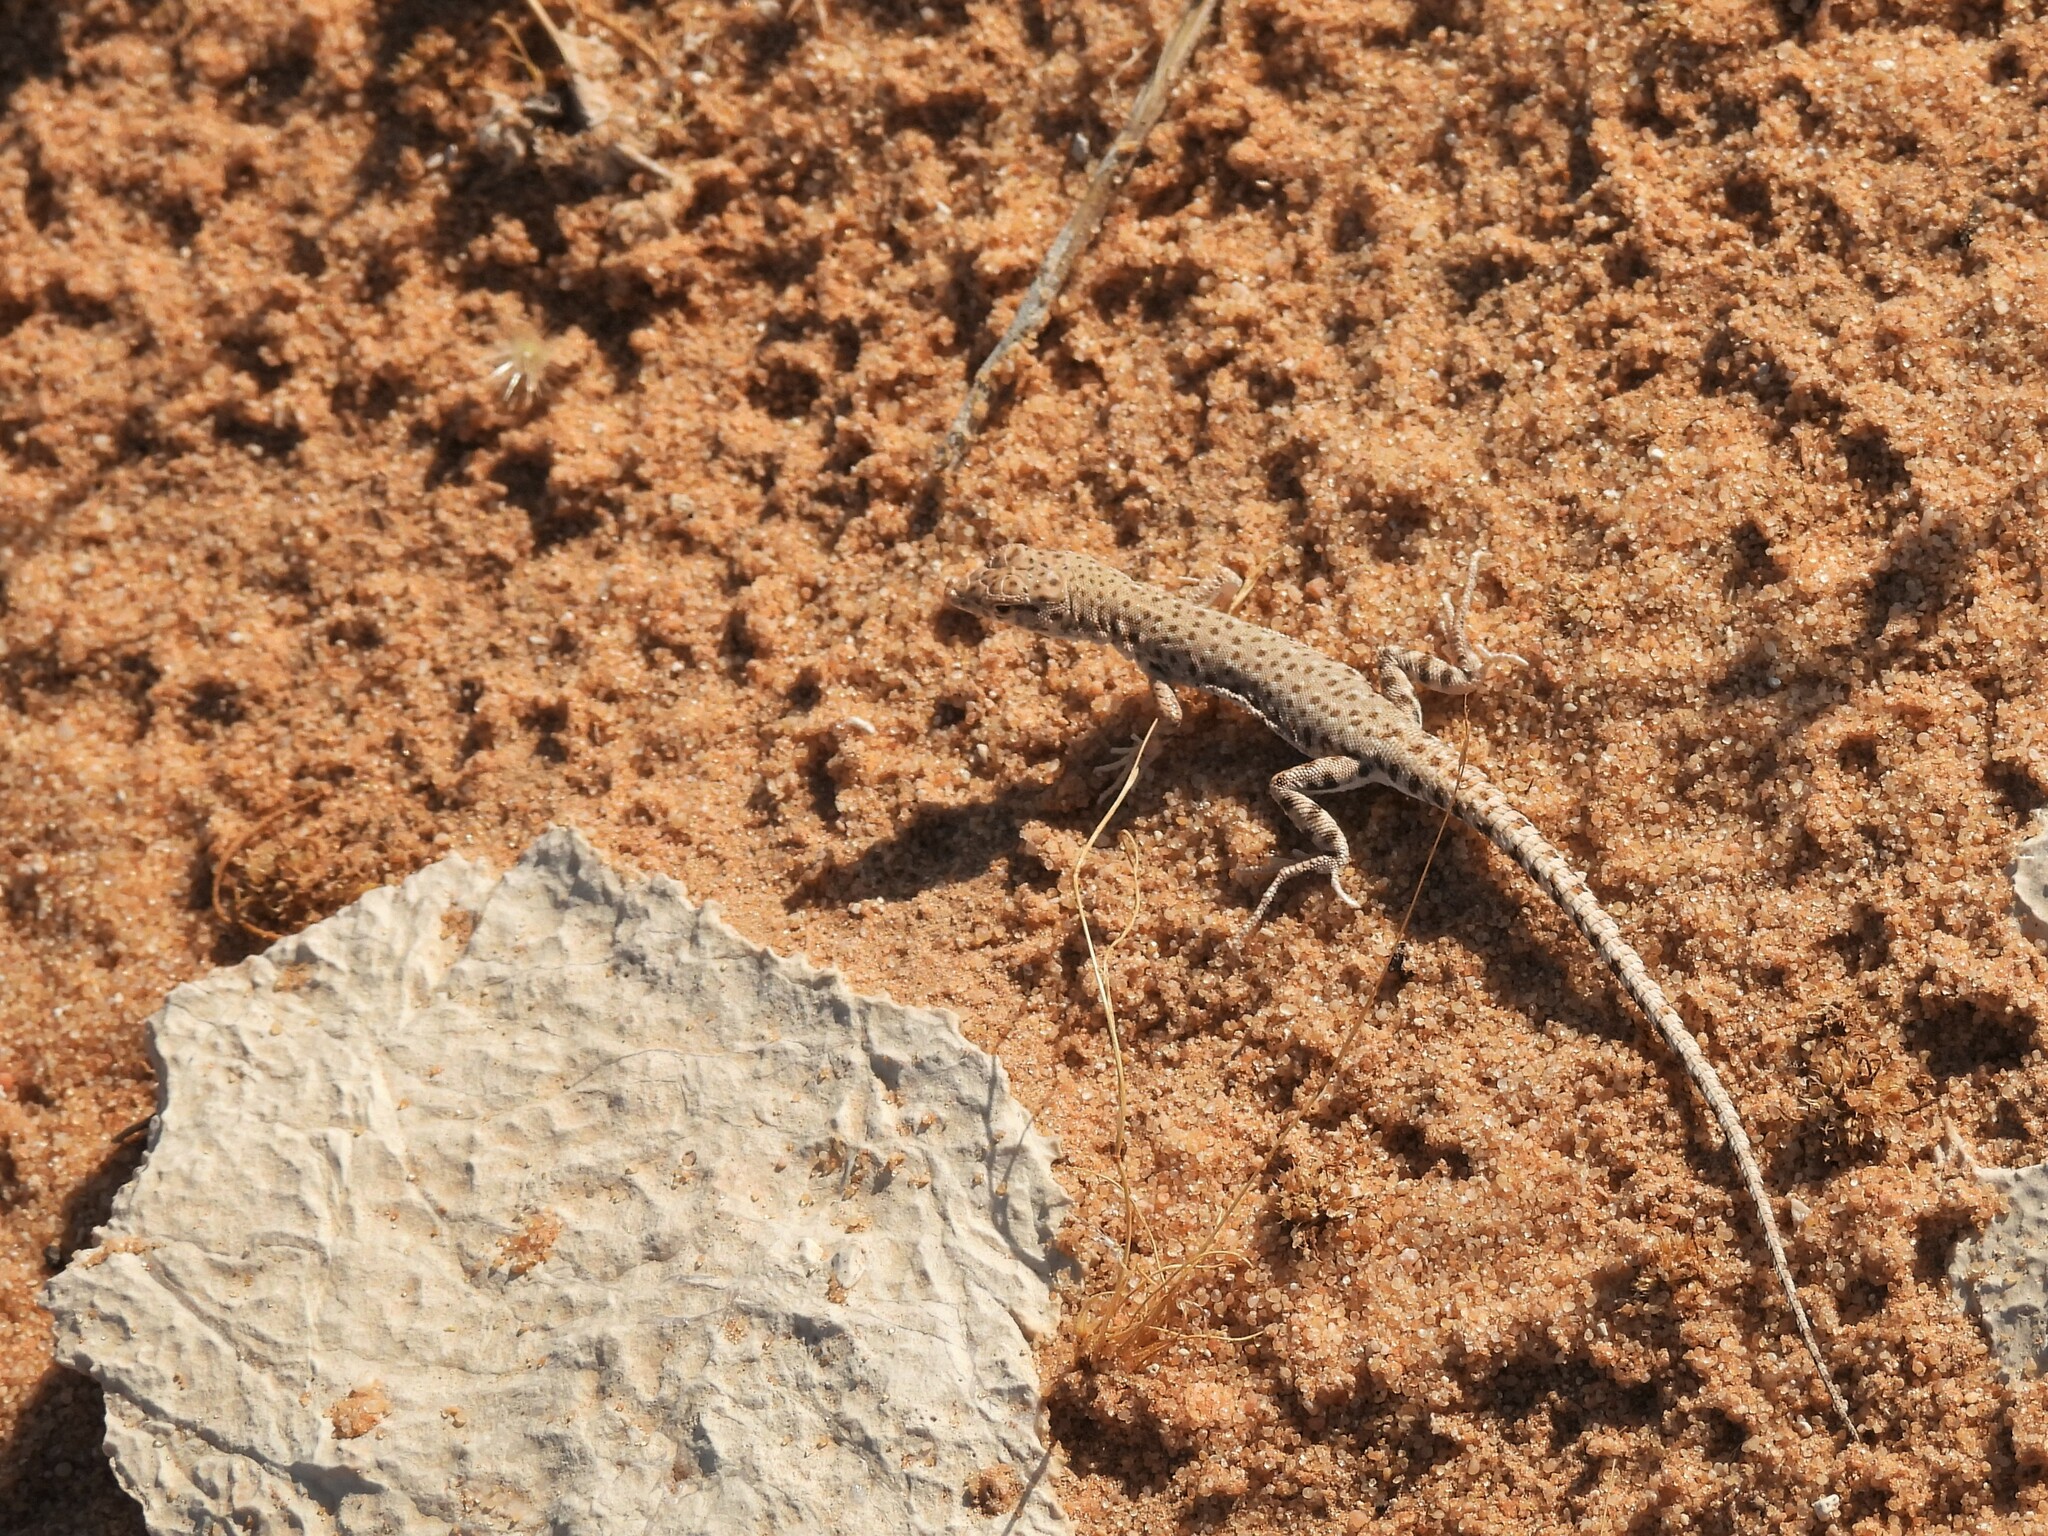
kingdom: Animalia
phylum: Chordata
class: Squamata
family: Lacertidae
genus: Mesalina
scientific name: Mesalina brevirostris
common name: Blanford's short-nosed desert lizard
